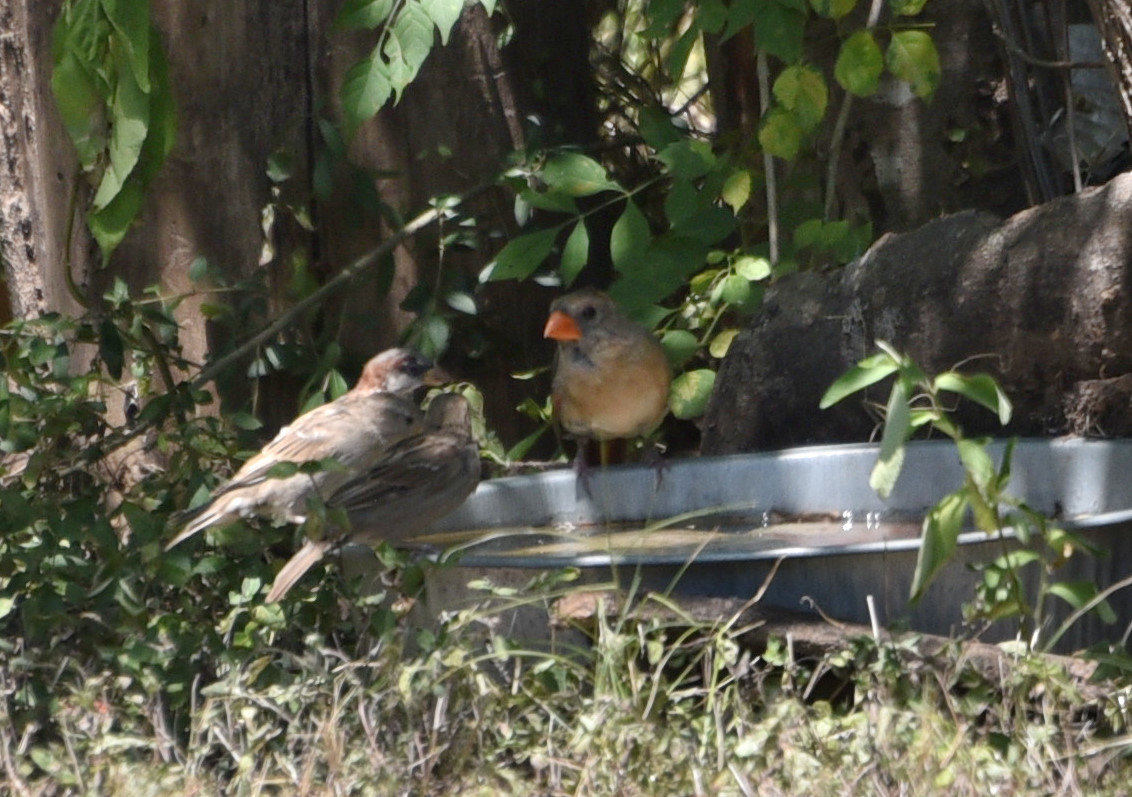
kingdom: Animalia
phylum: Chordata
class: Aves
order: Passeriformes
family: Cardinalidae
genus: Cardinalis
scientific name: Cardinalis cardinalis
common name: Northern cardinal
